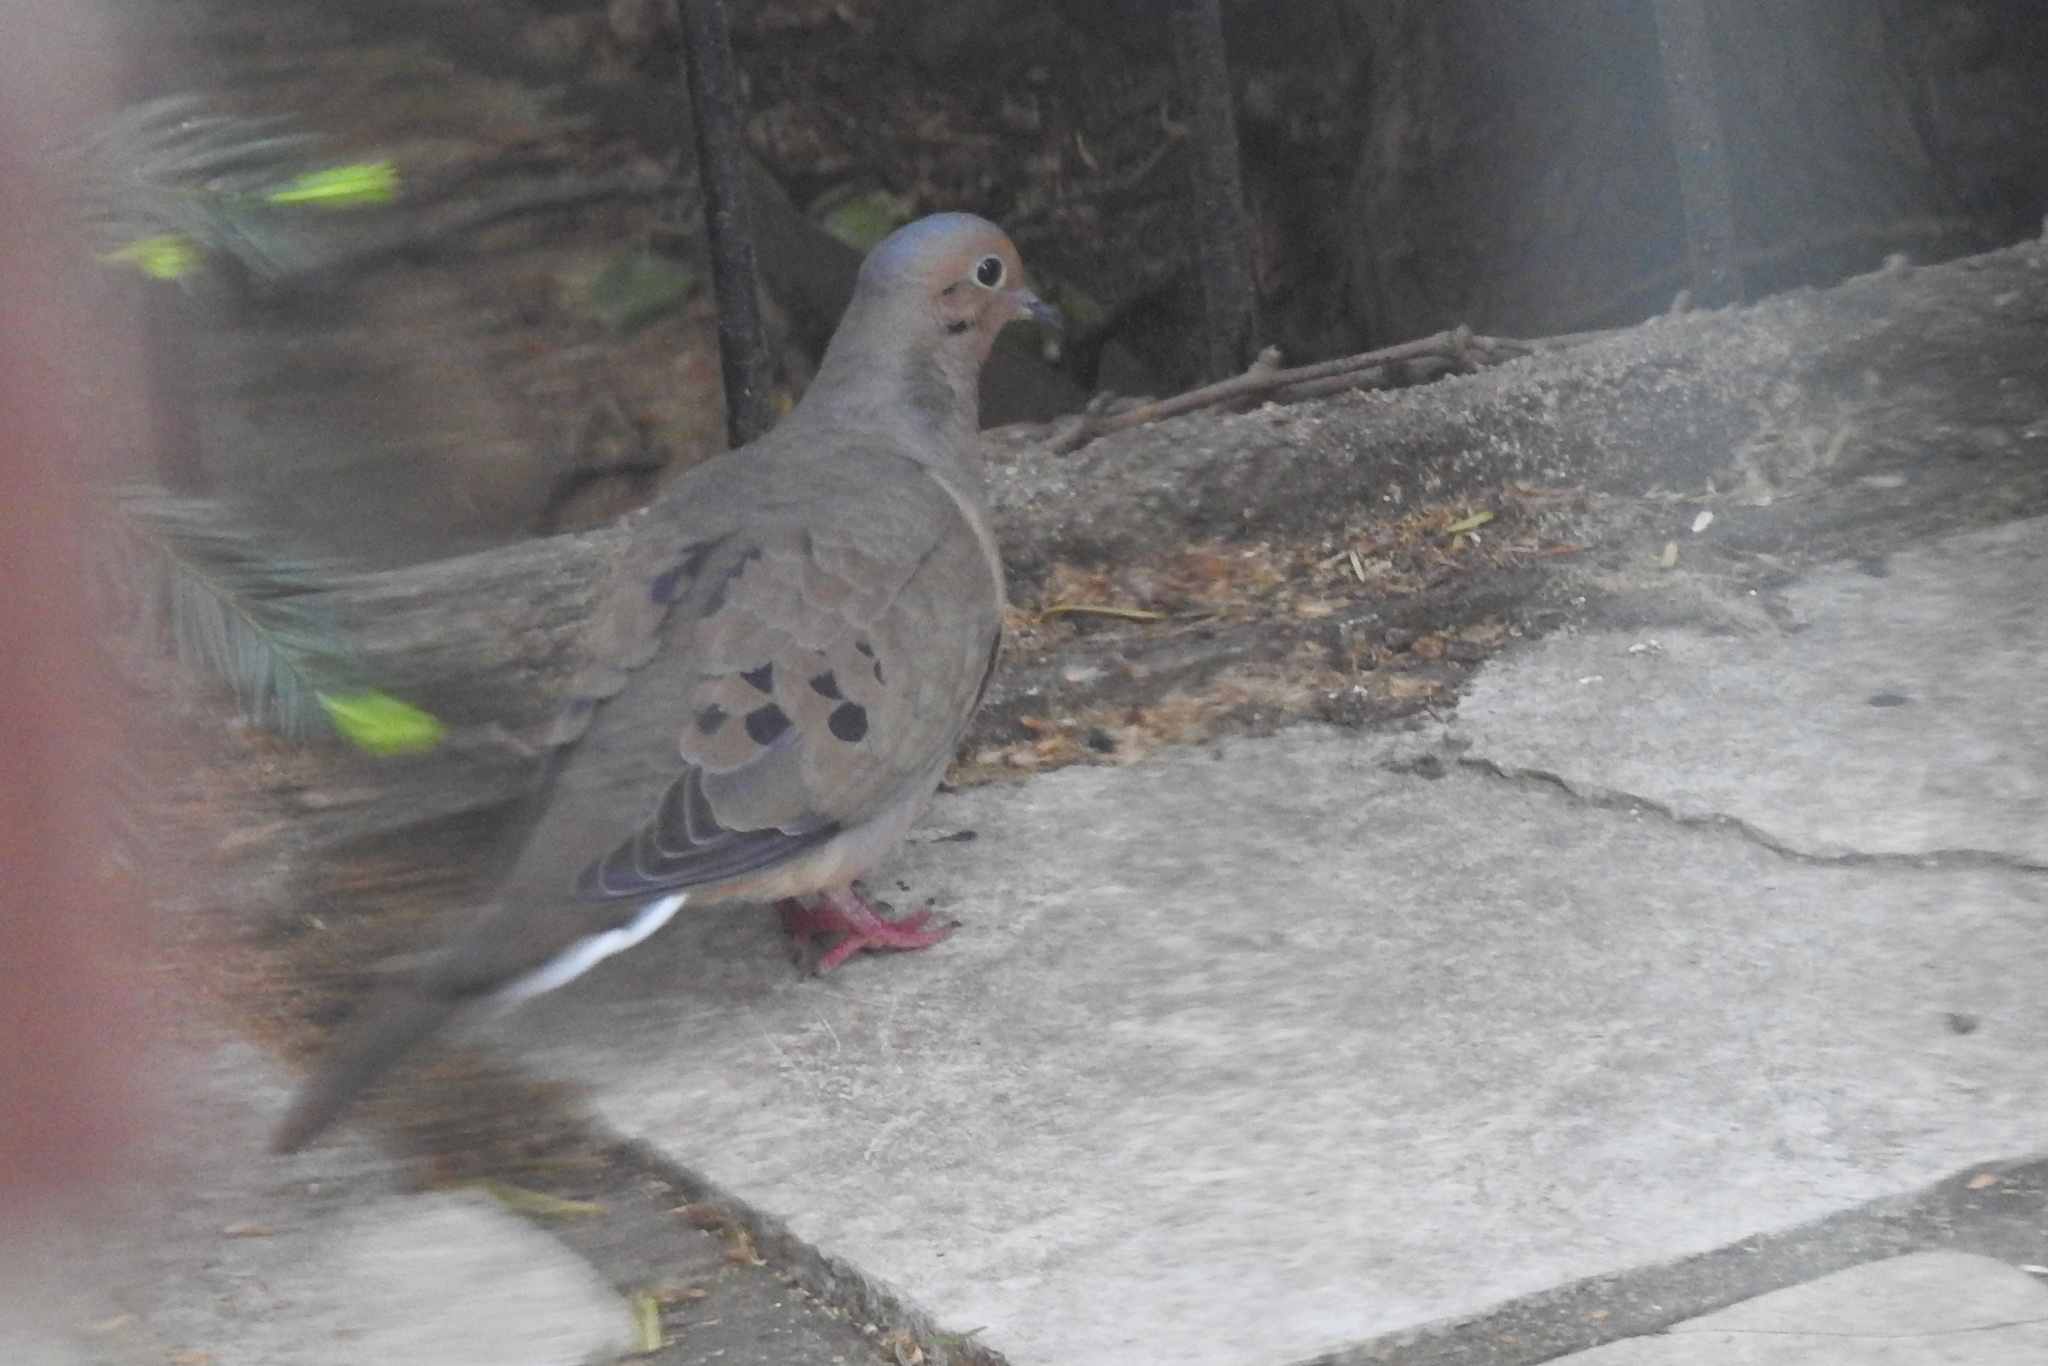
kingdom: Animalia
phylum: Chordata
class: Aves
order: Columbiformes
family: Columbidae
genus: Zenaida
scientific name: Zenaida macroura
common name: Mourning dove
